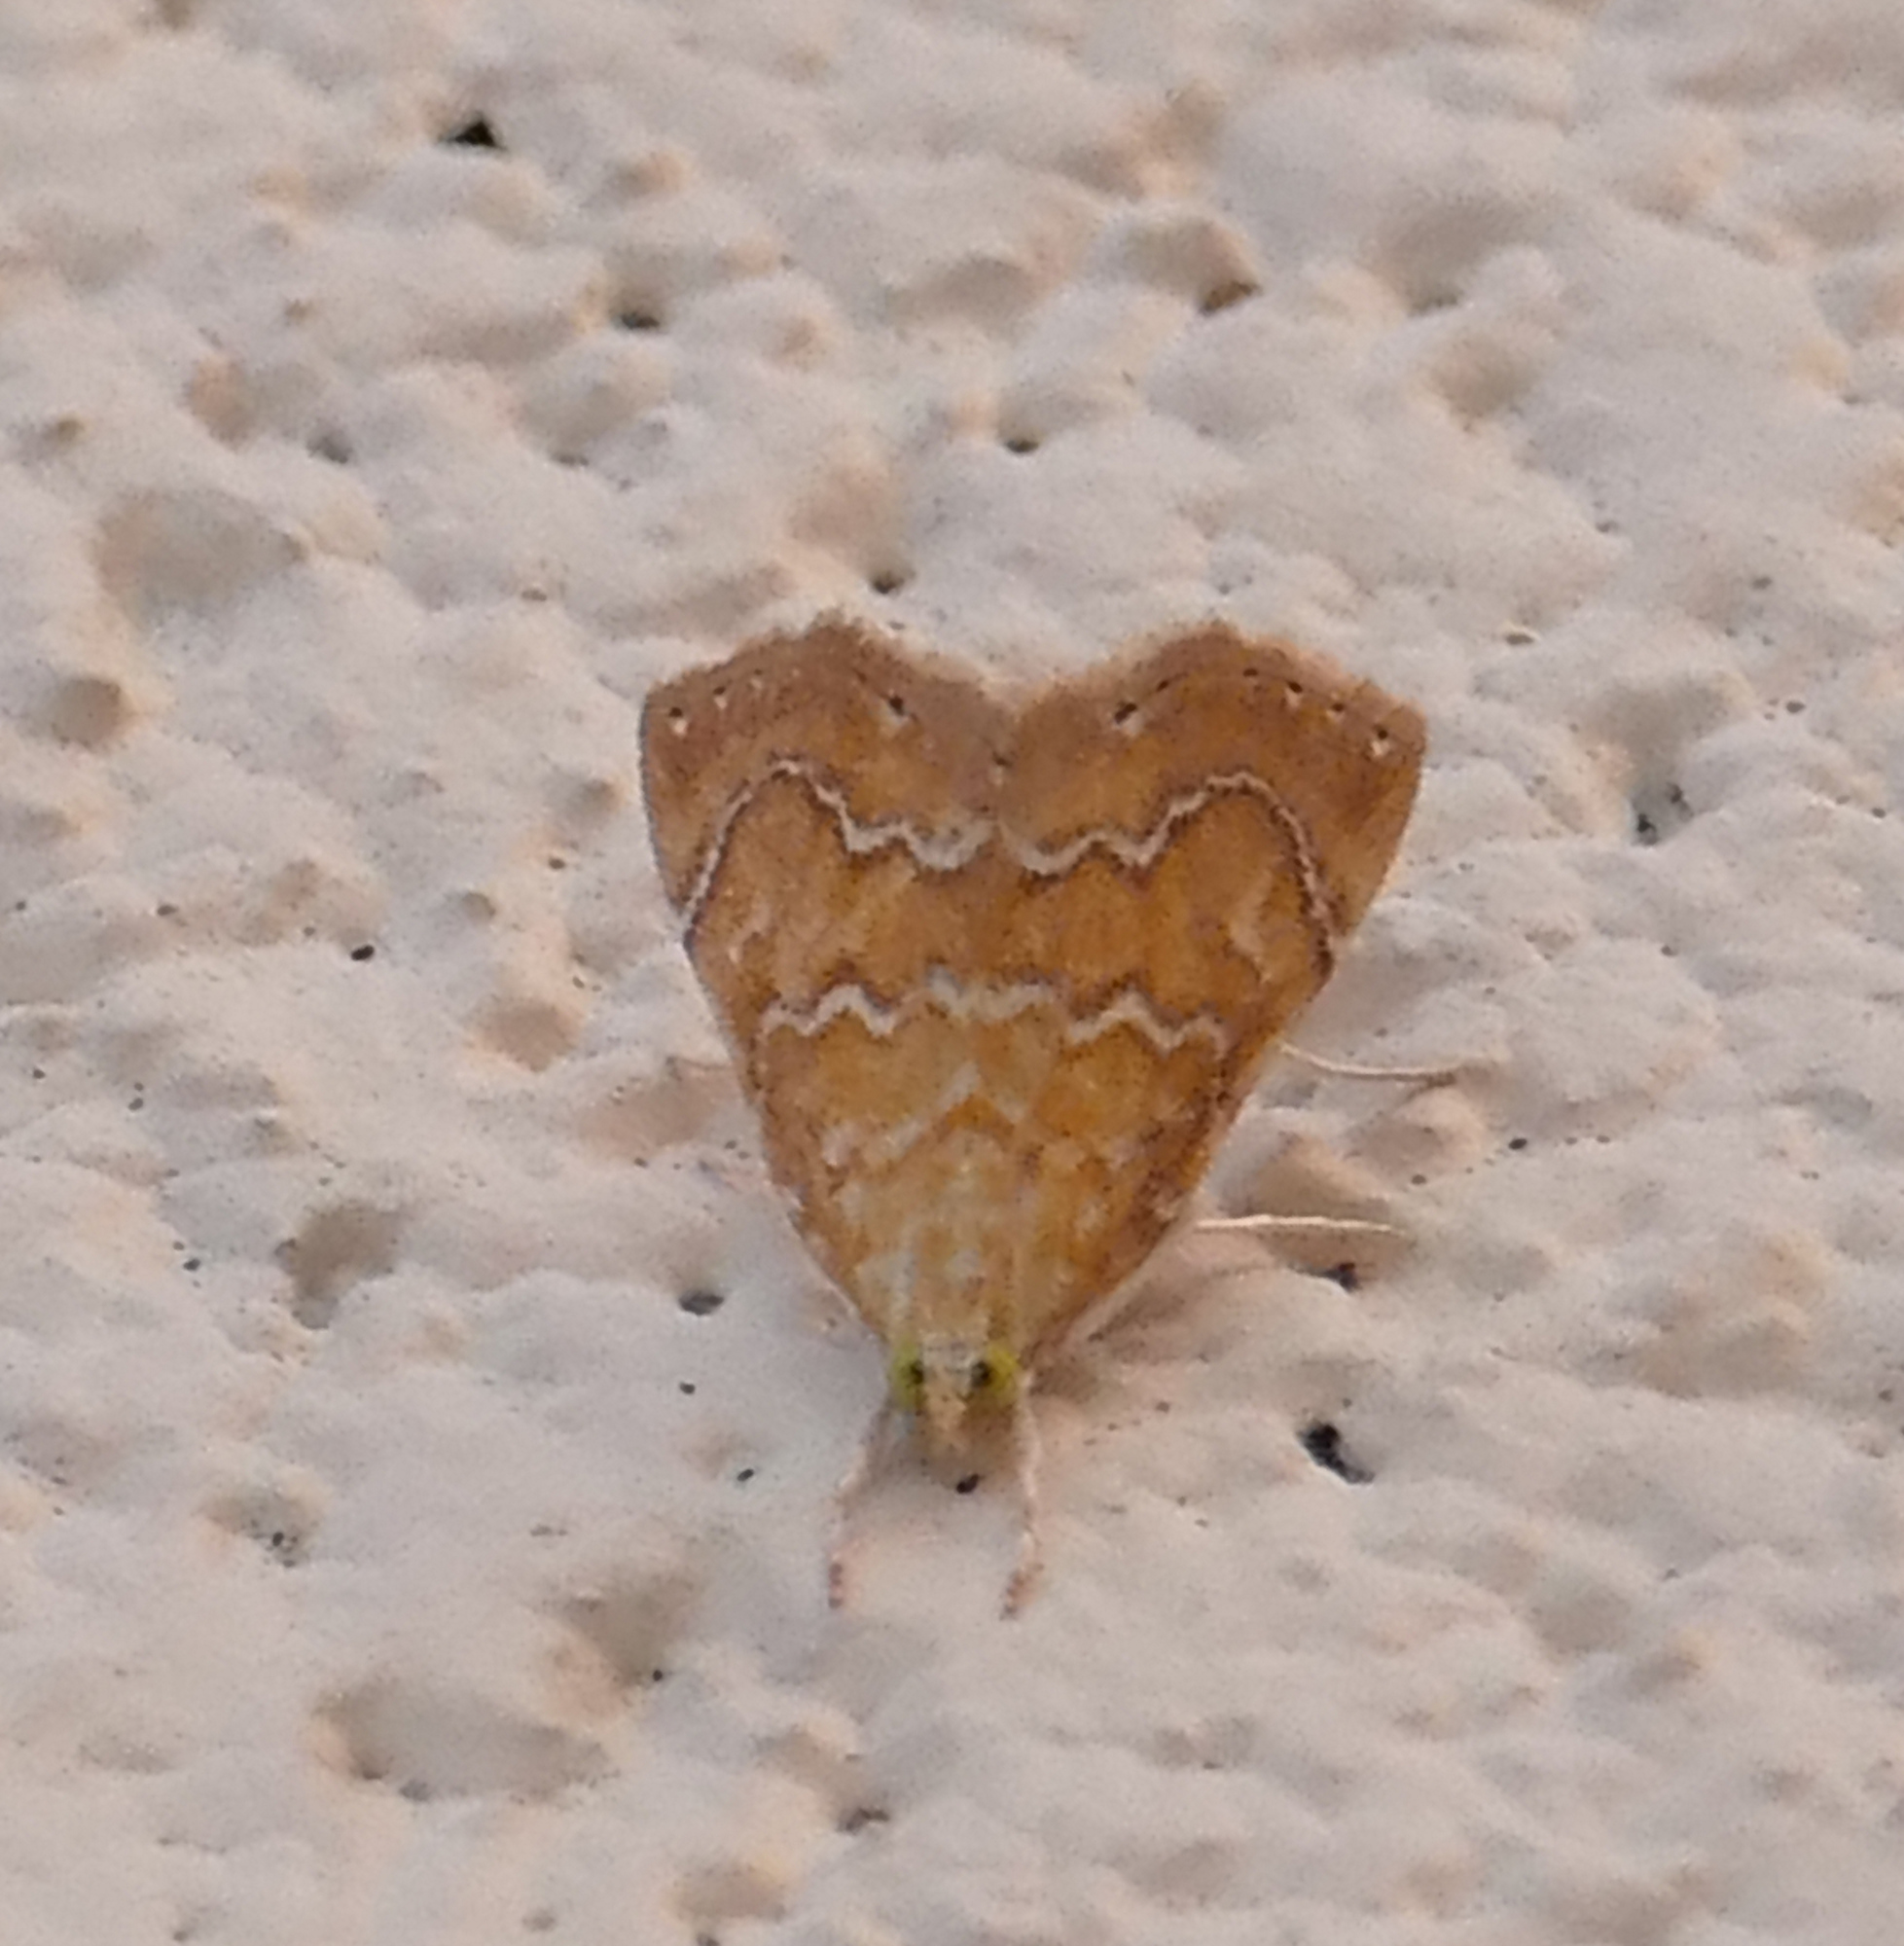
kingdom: Animalia
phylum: Arthropoda
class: Insecta
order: Lepidoptera
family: Crambidae
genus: Glaphyria
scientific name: Glaphyria sesquistrialis
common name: White-roped glaphyria
